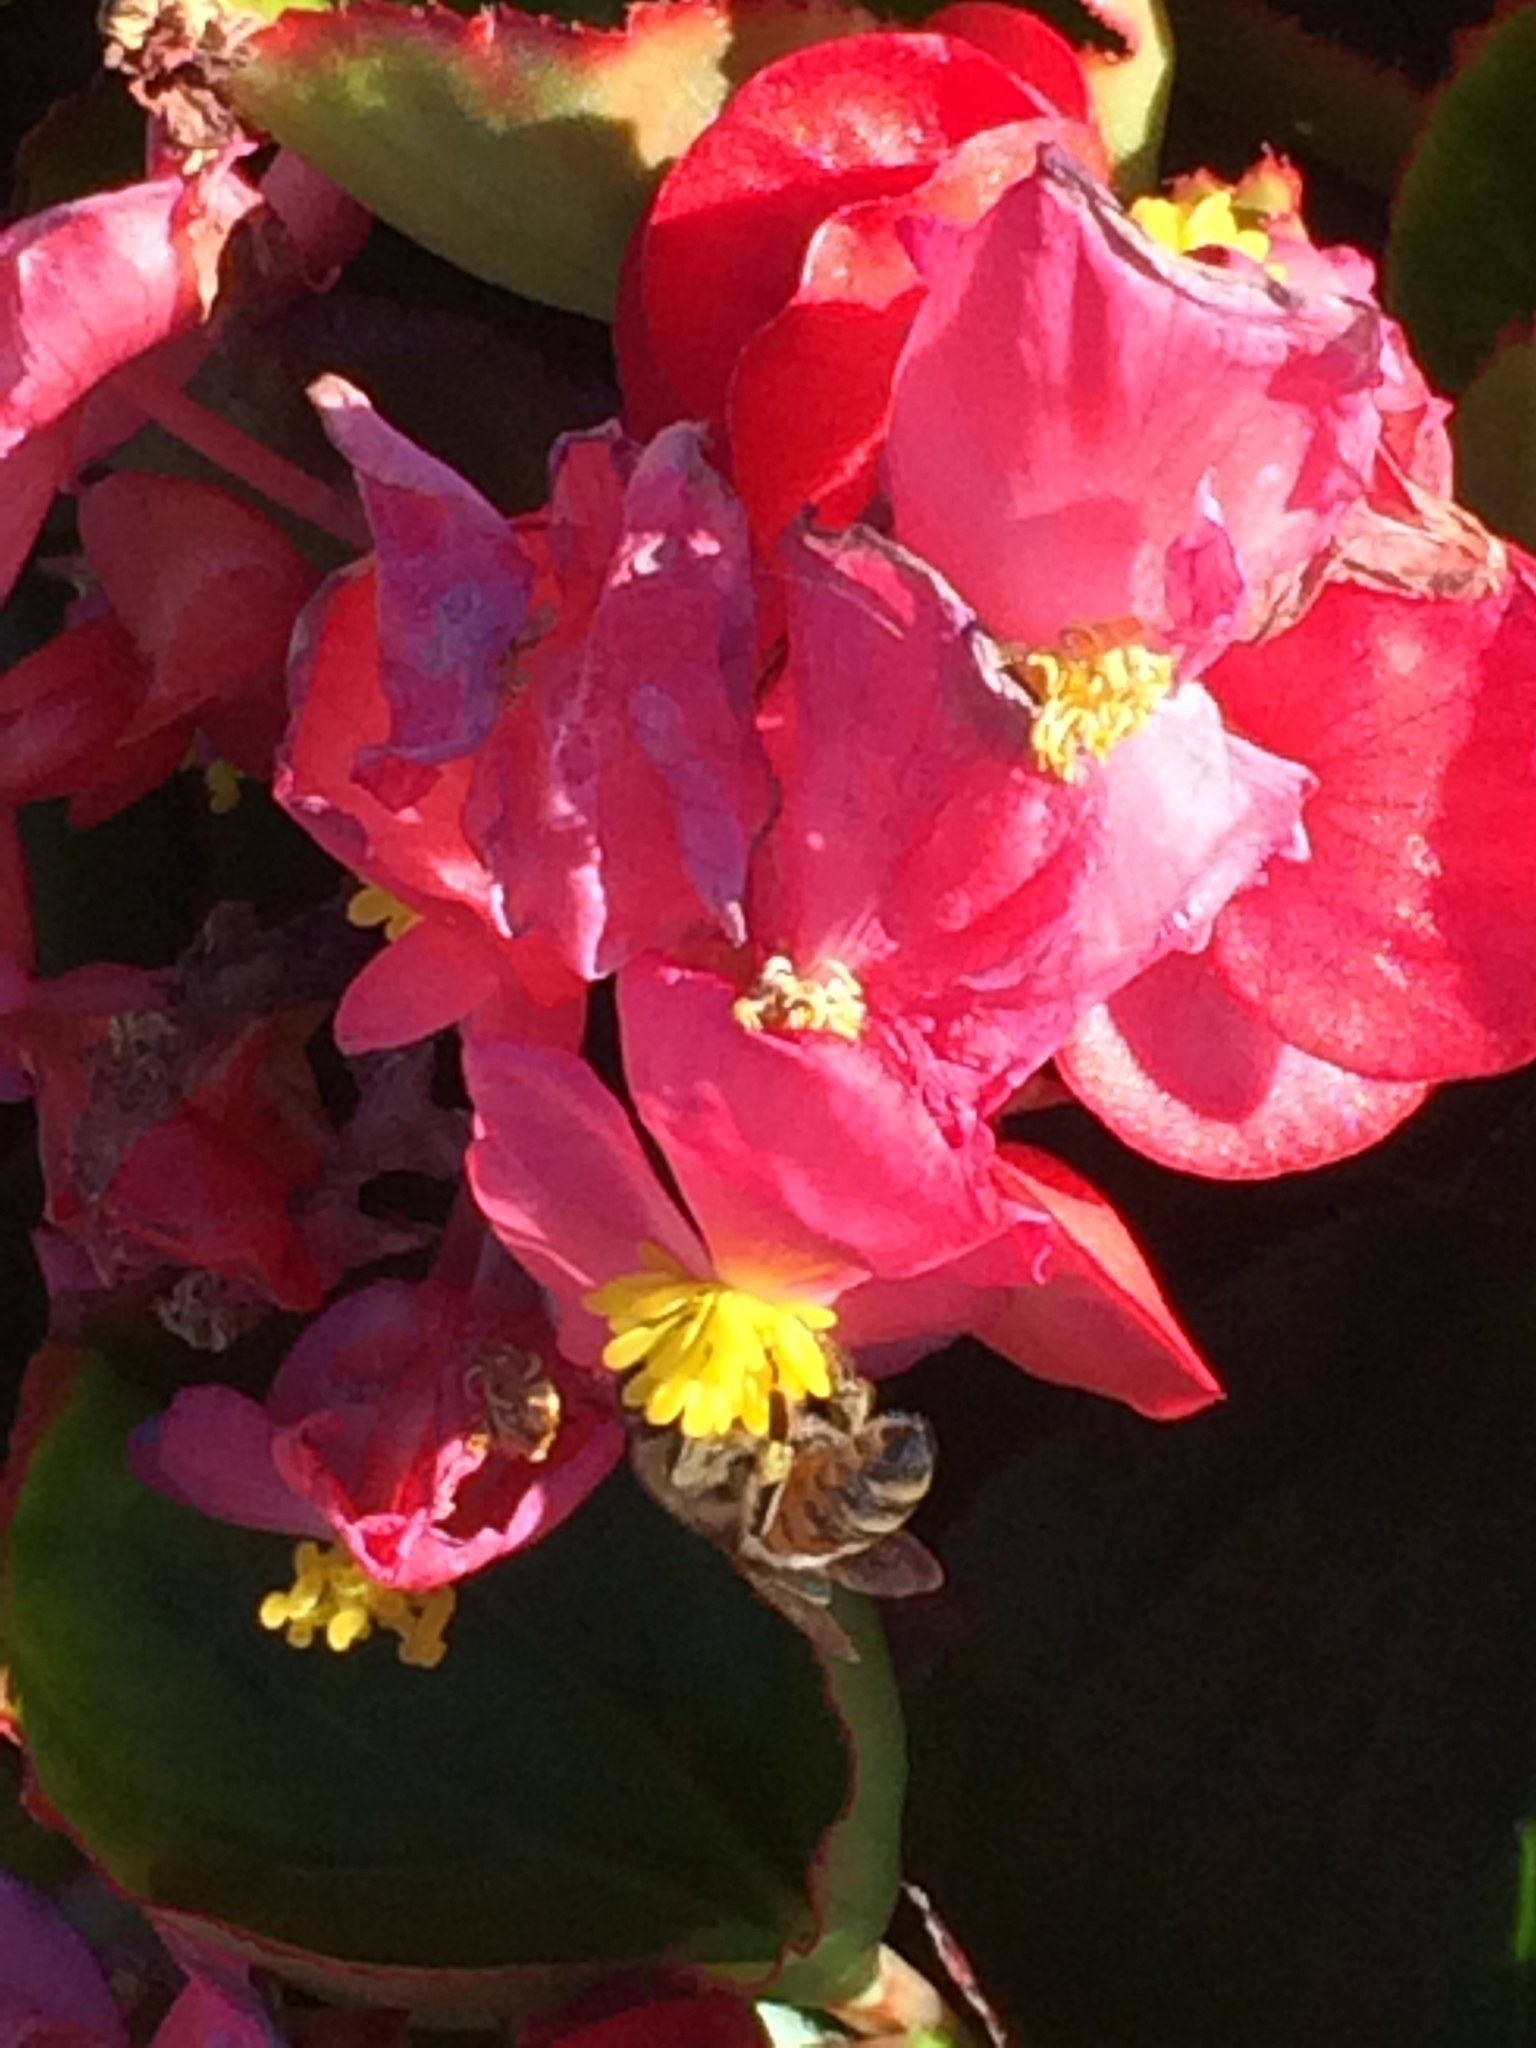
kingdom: Animalia
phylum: Arthropoda
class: Insecta
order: Hymenoptera
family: Apidae
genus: Apis
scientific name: Apis mellifera
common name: Honey bee
